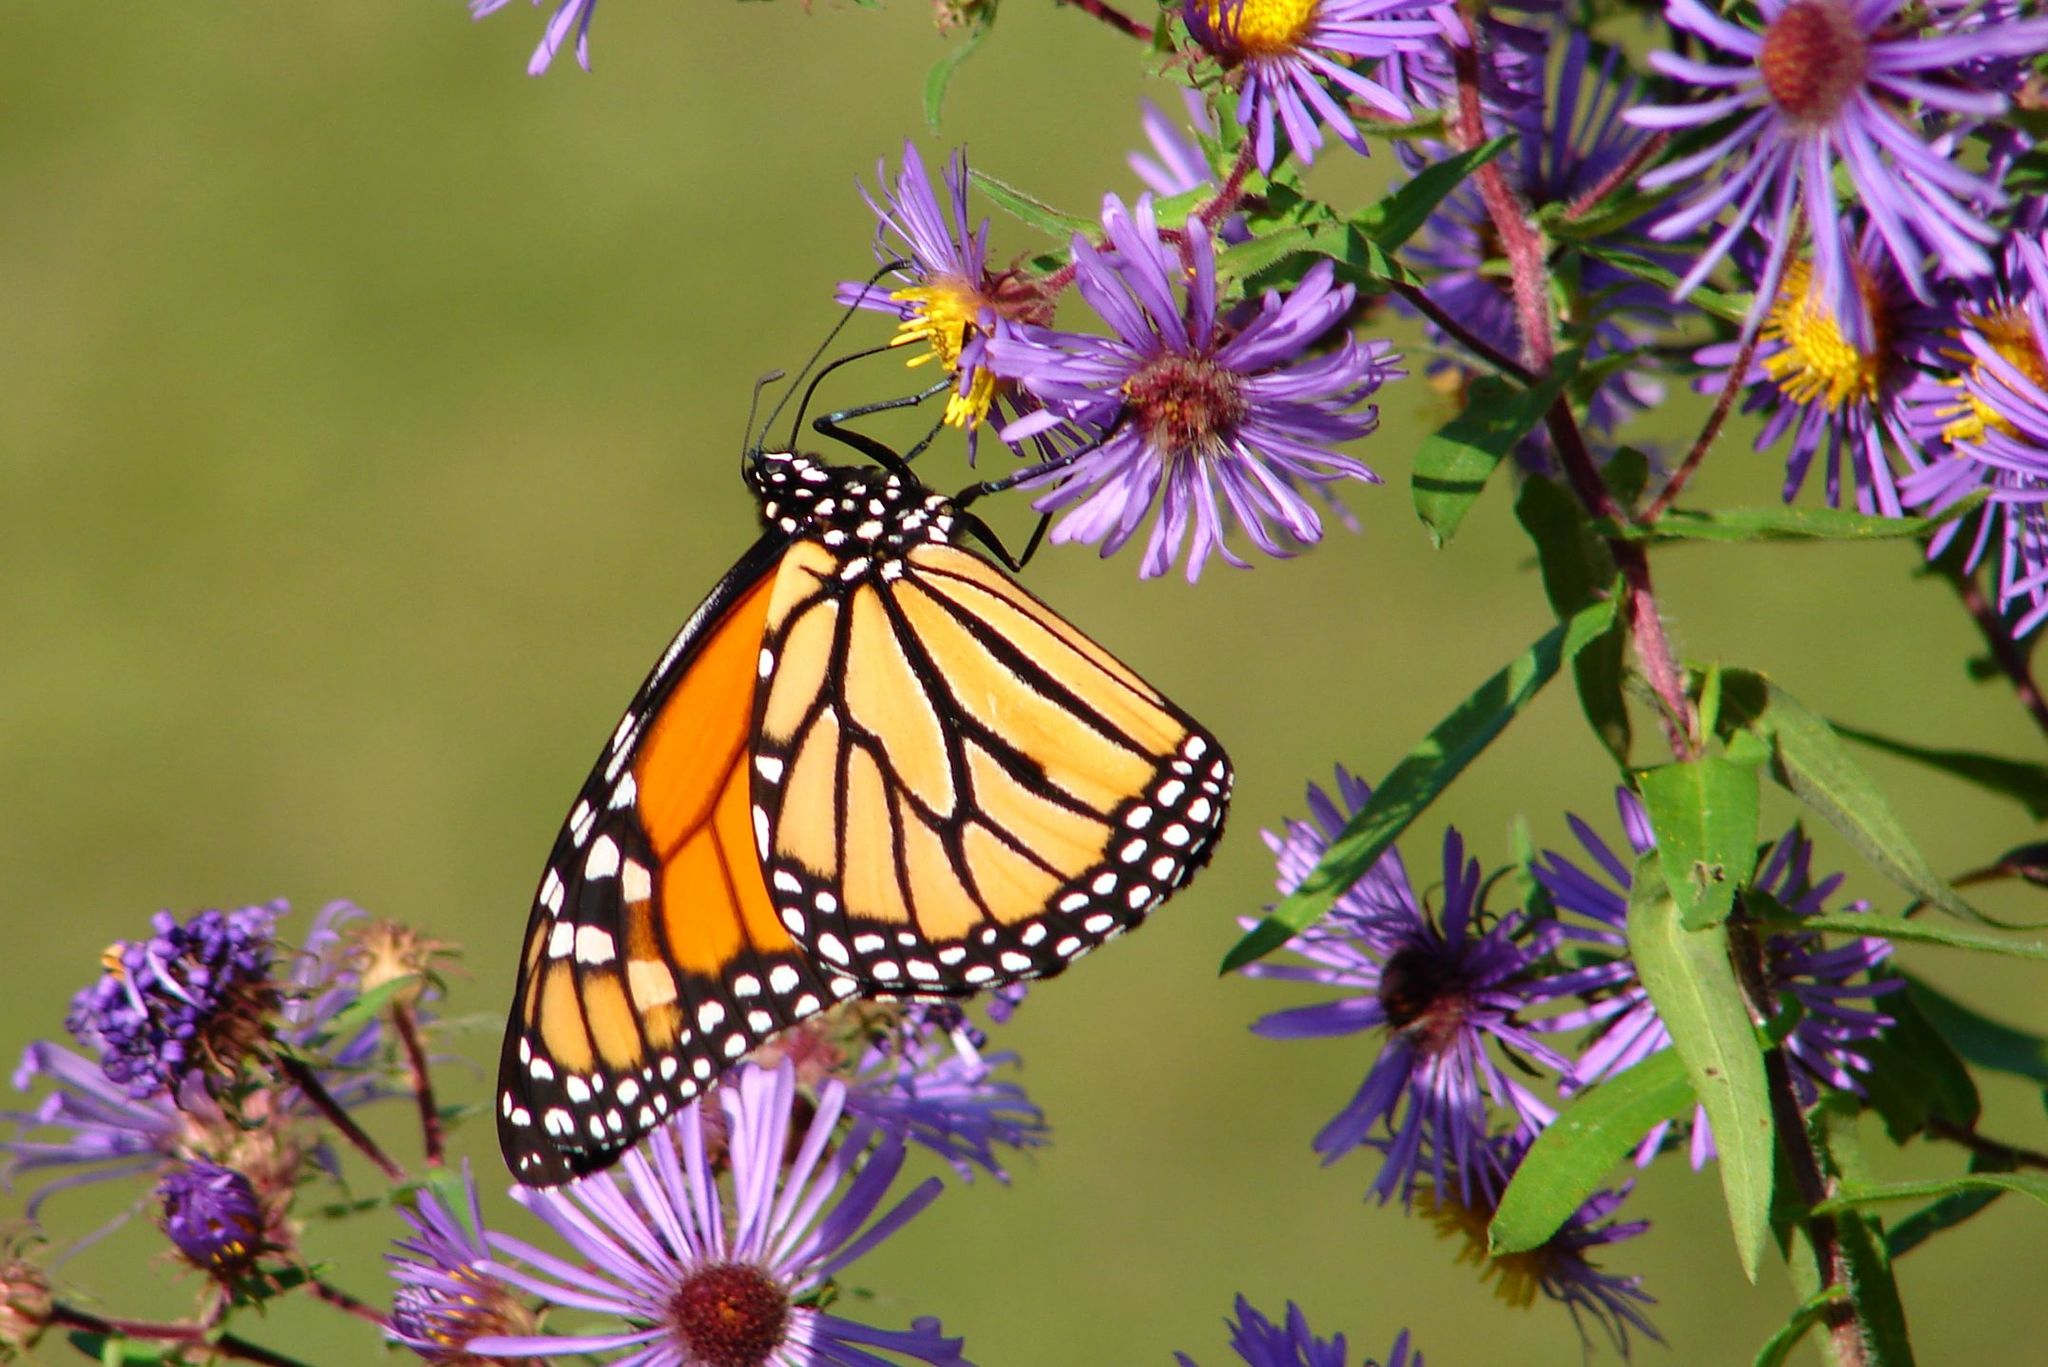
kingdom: Animalia
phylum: Arthropoda
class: Insecta
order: Lepidoptera
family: Nymphalidae
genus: Danaus
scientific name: Danaus plexippus
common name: Monarch
